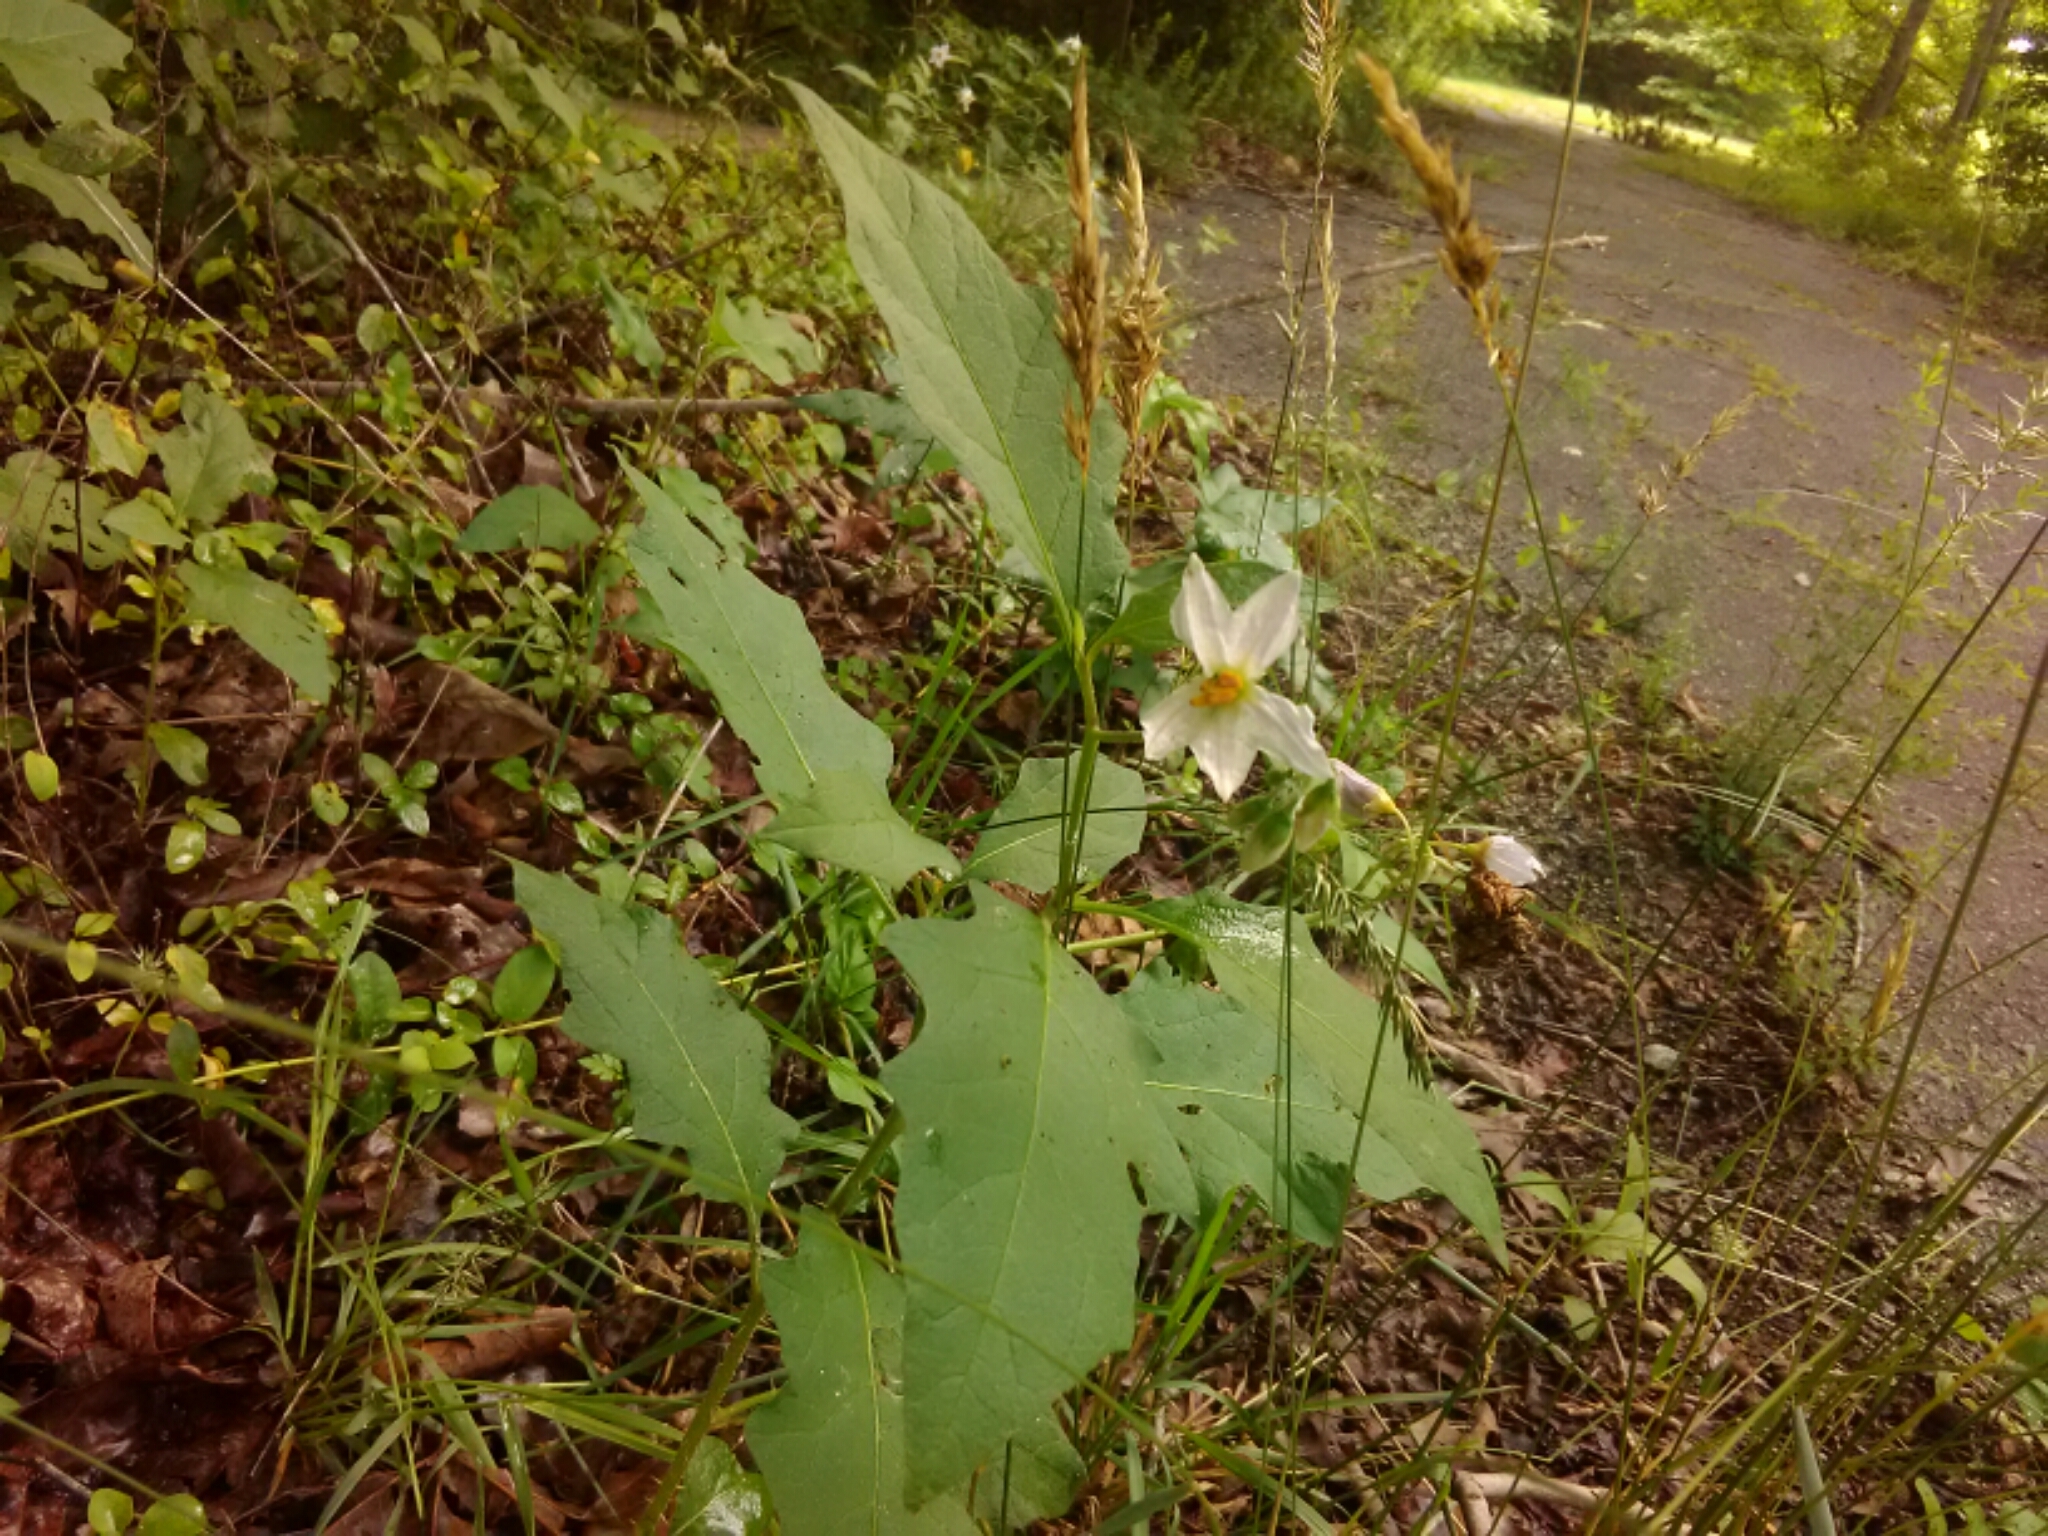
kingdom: Plantae
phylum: Tracheophyta
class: Magnoliopsida
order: Solanales
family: Solanaceae
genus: Solanum
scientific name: Solanum carolinense
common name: Horse-nettle
